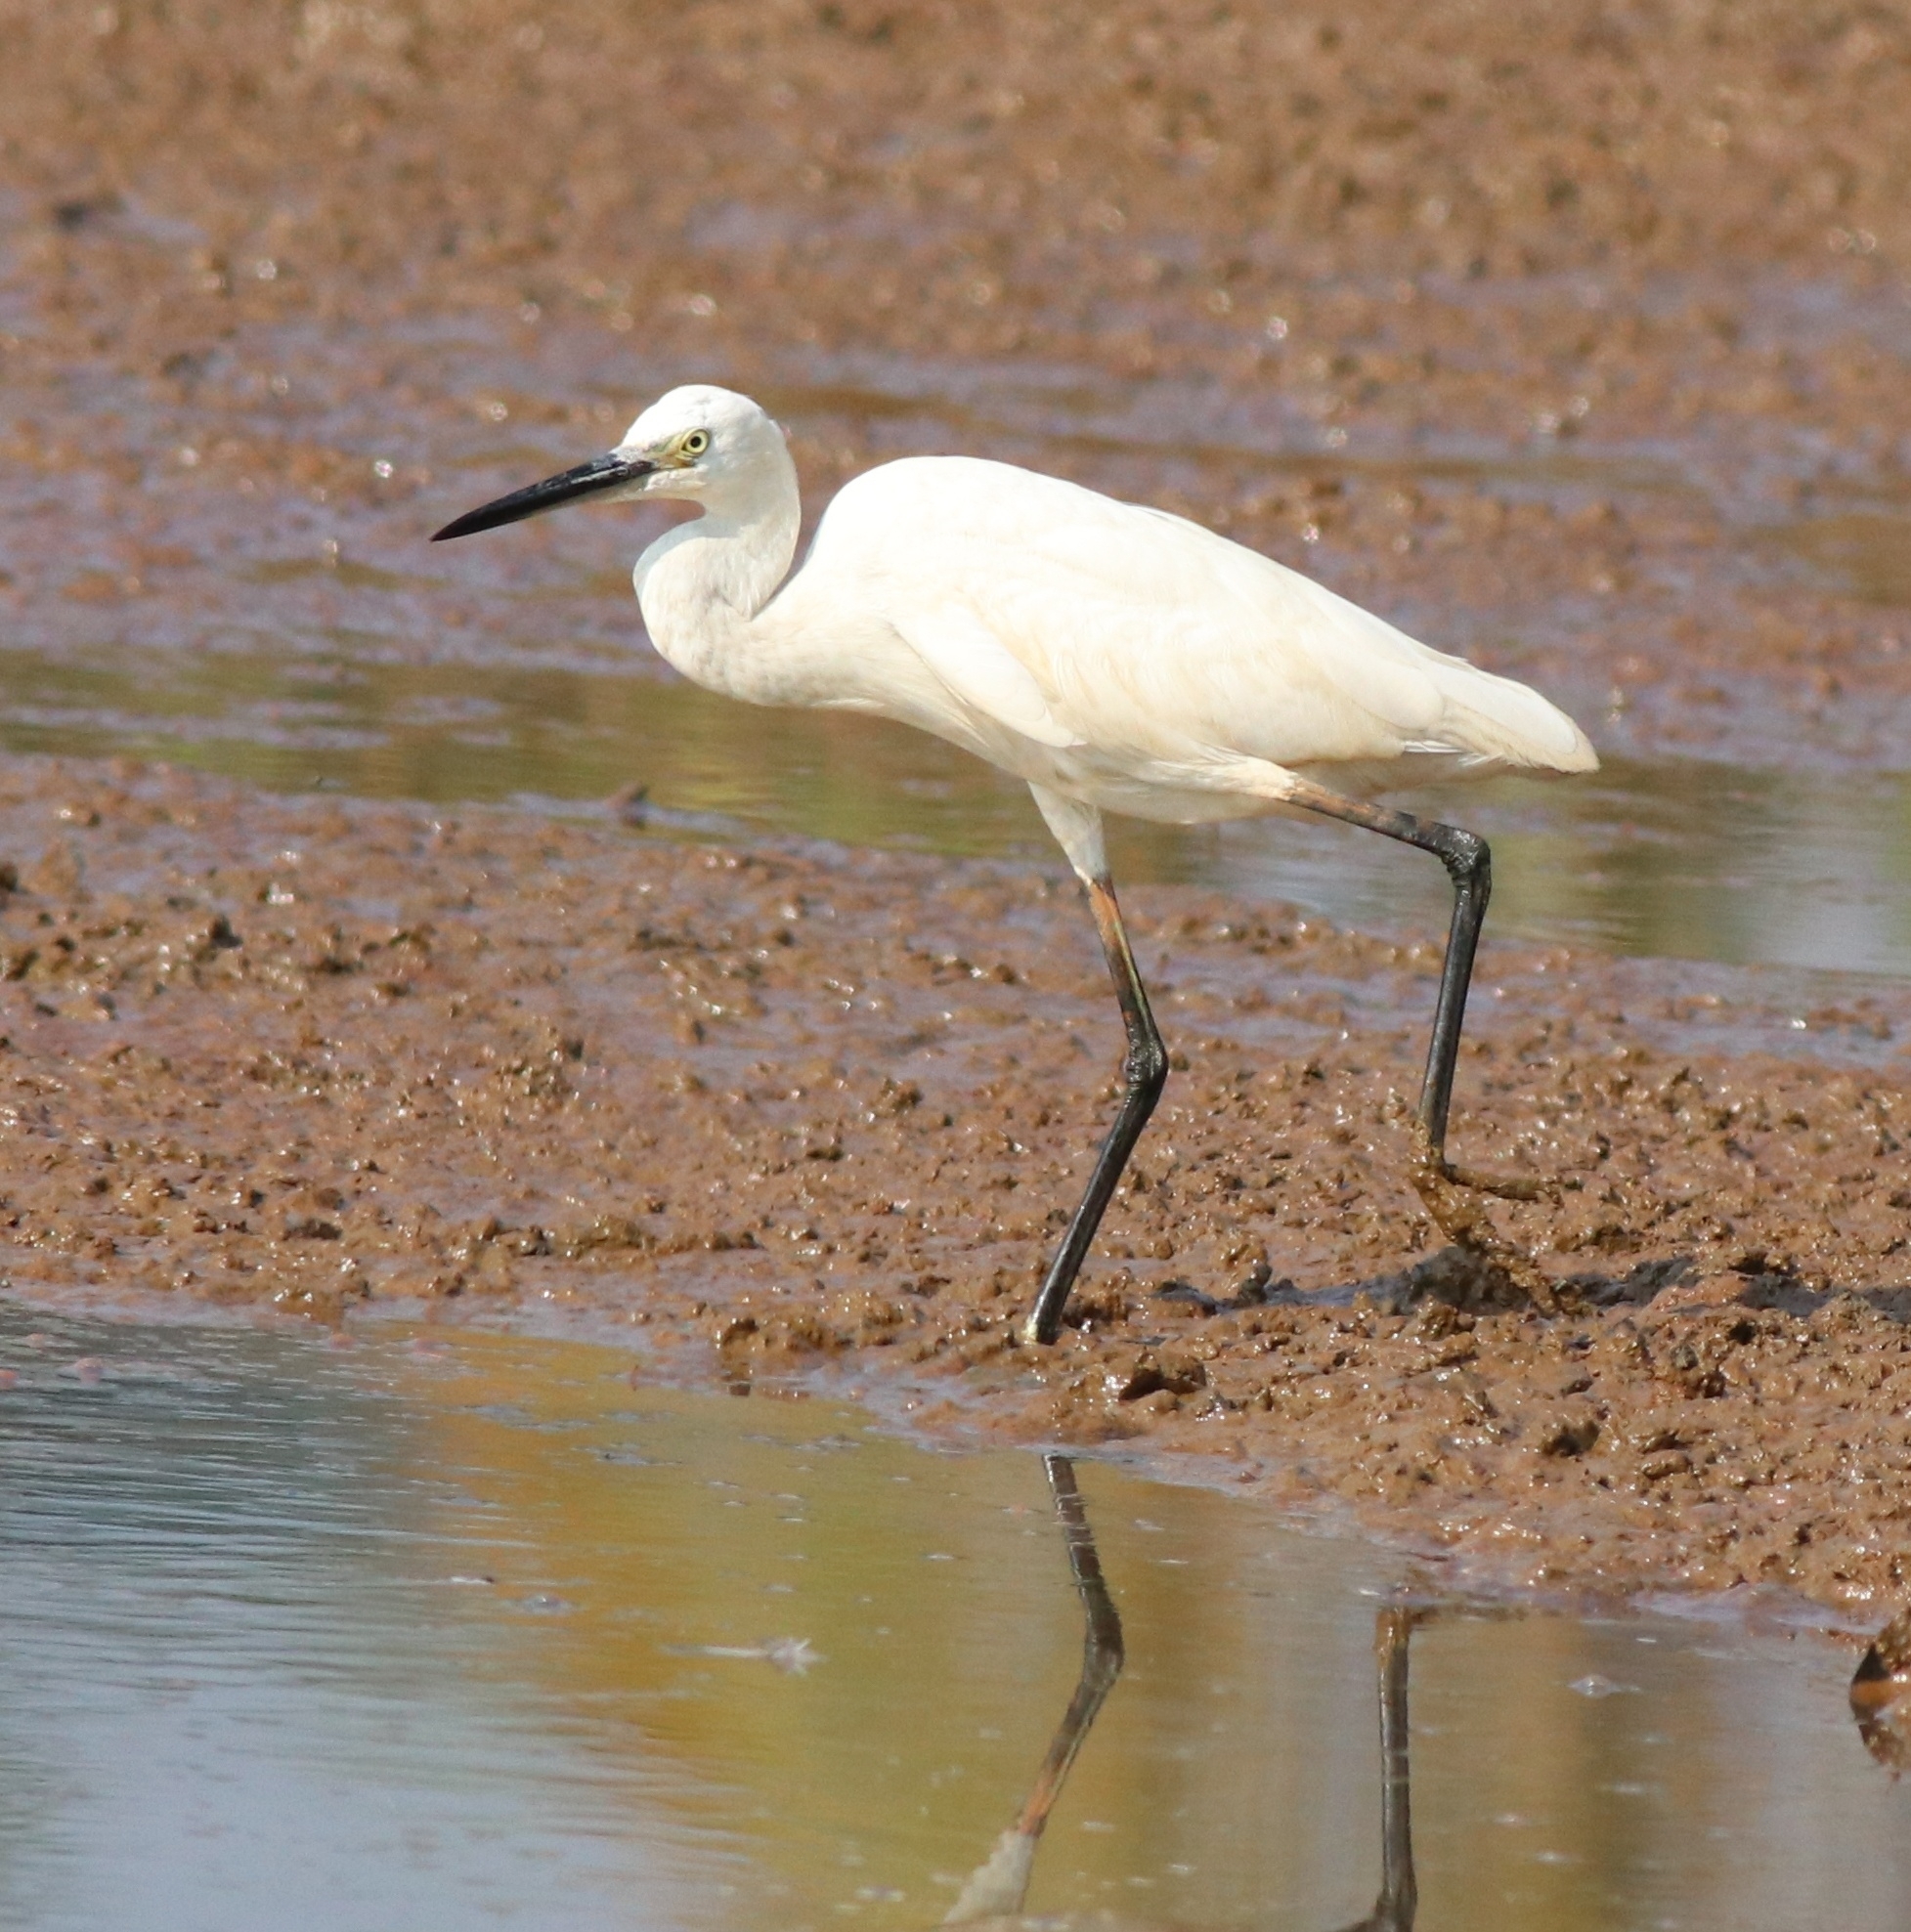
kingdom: Animalia
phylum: Chordata
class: Aves
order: Pelecaniformes
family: Ardeidae
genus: Egretta
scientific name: Egretta garzetta
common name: Little egret
